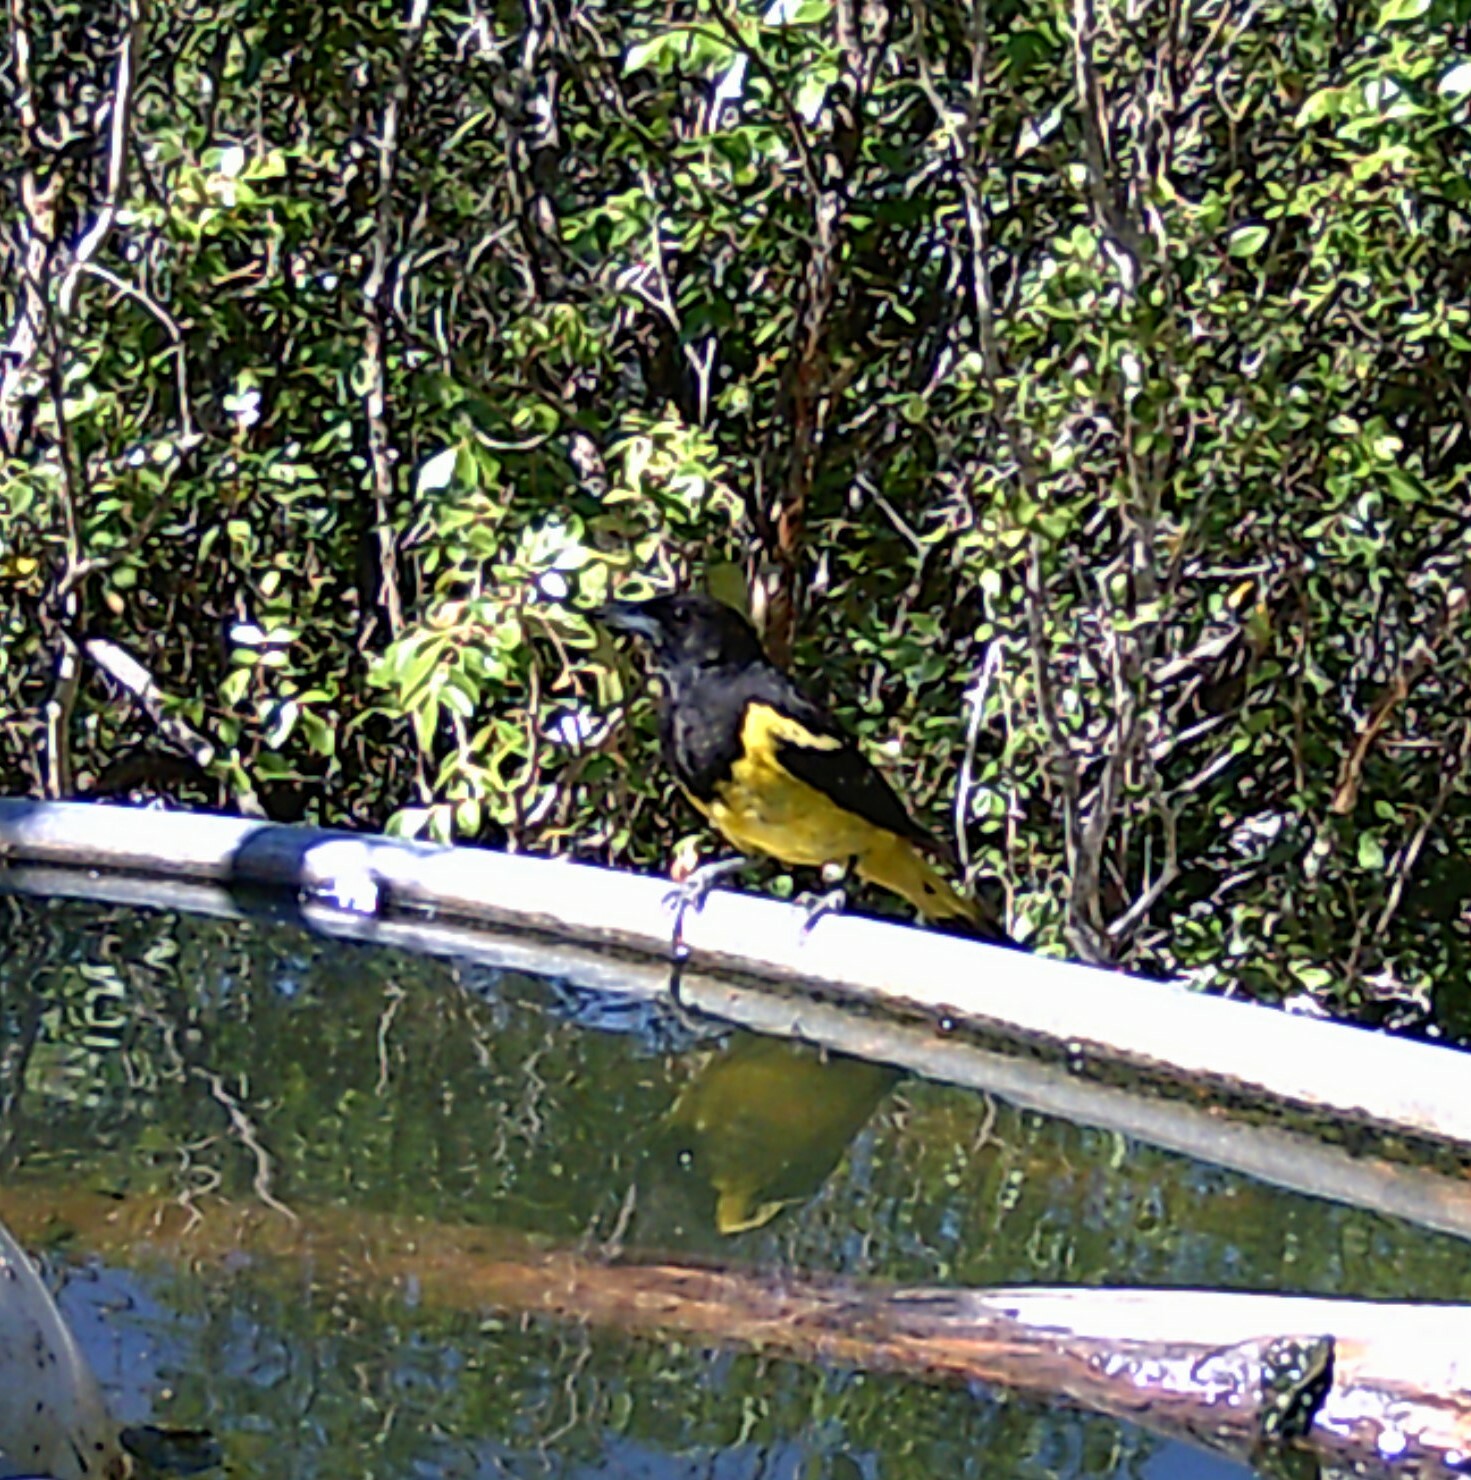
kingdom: Animalia
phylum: Chordata
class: Aves
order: Passeriformes
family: Icteridae
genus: Icterus
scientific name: Icterus parisorum
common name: Scott's oriole
